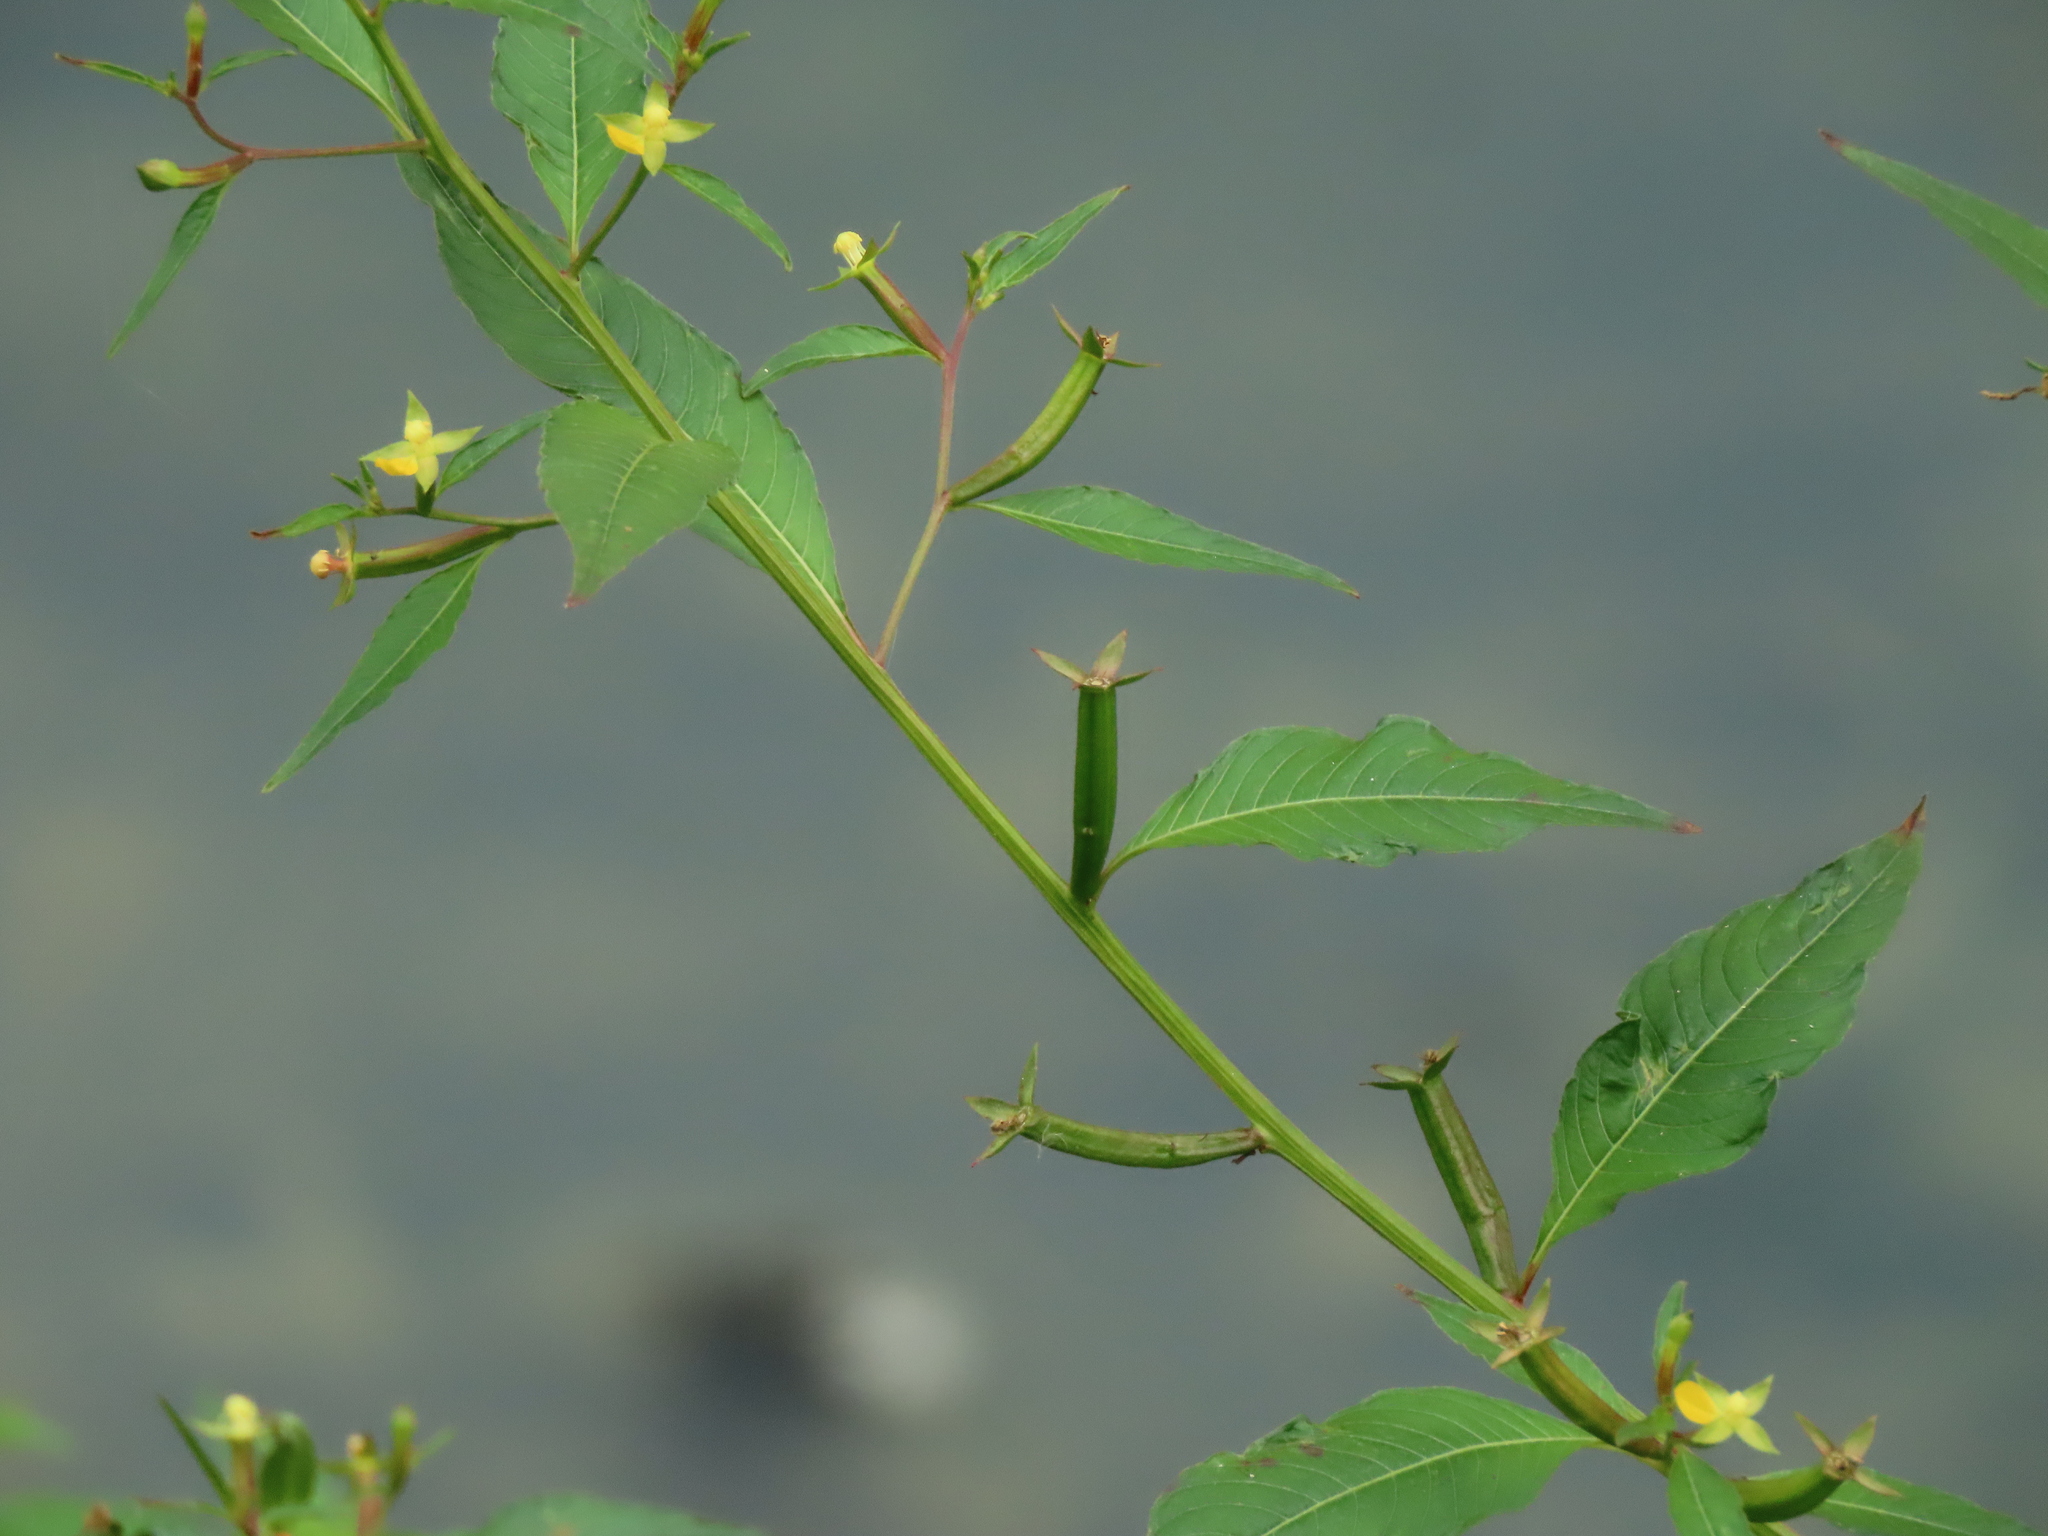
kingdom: Plantae
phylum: Tracheophyta
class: Magnoliopsida
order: Myrtales
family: Onagraceae
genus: Ludwigia
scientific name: Ludwigia erecta
